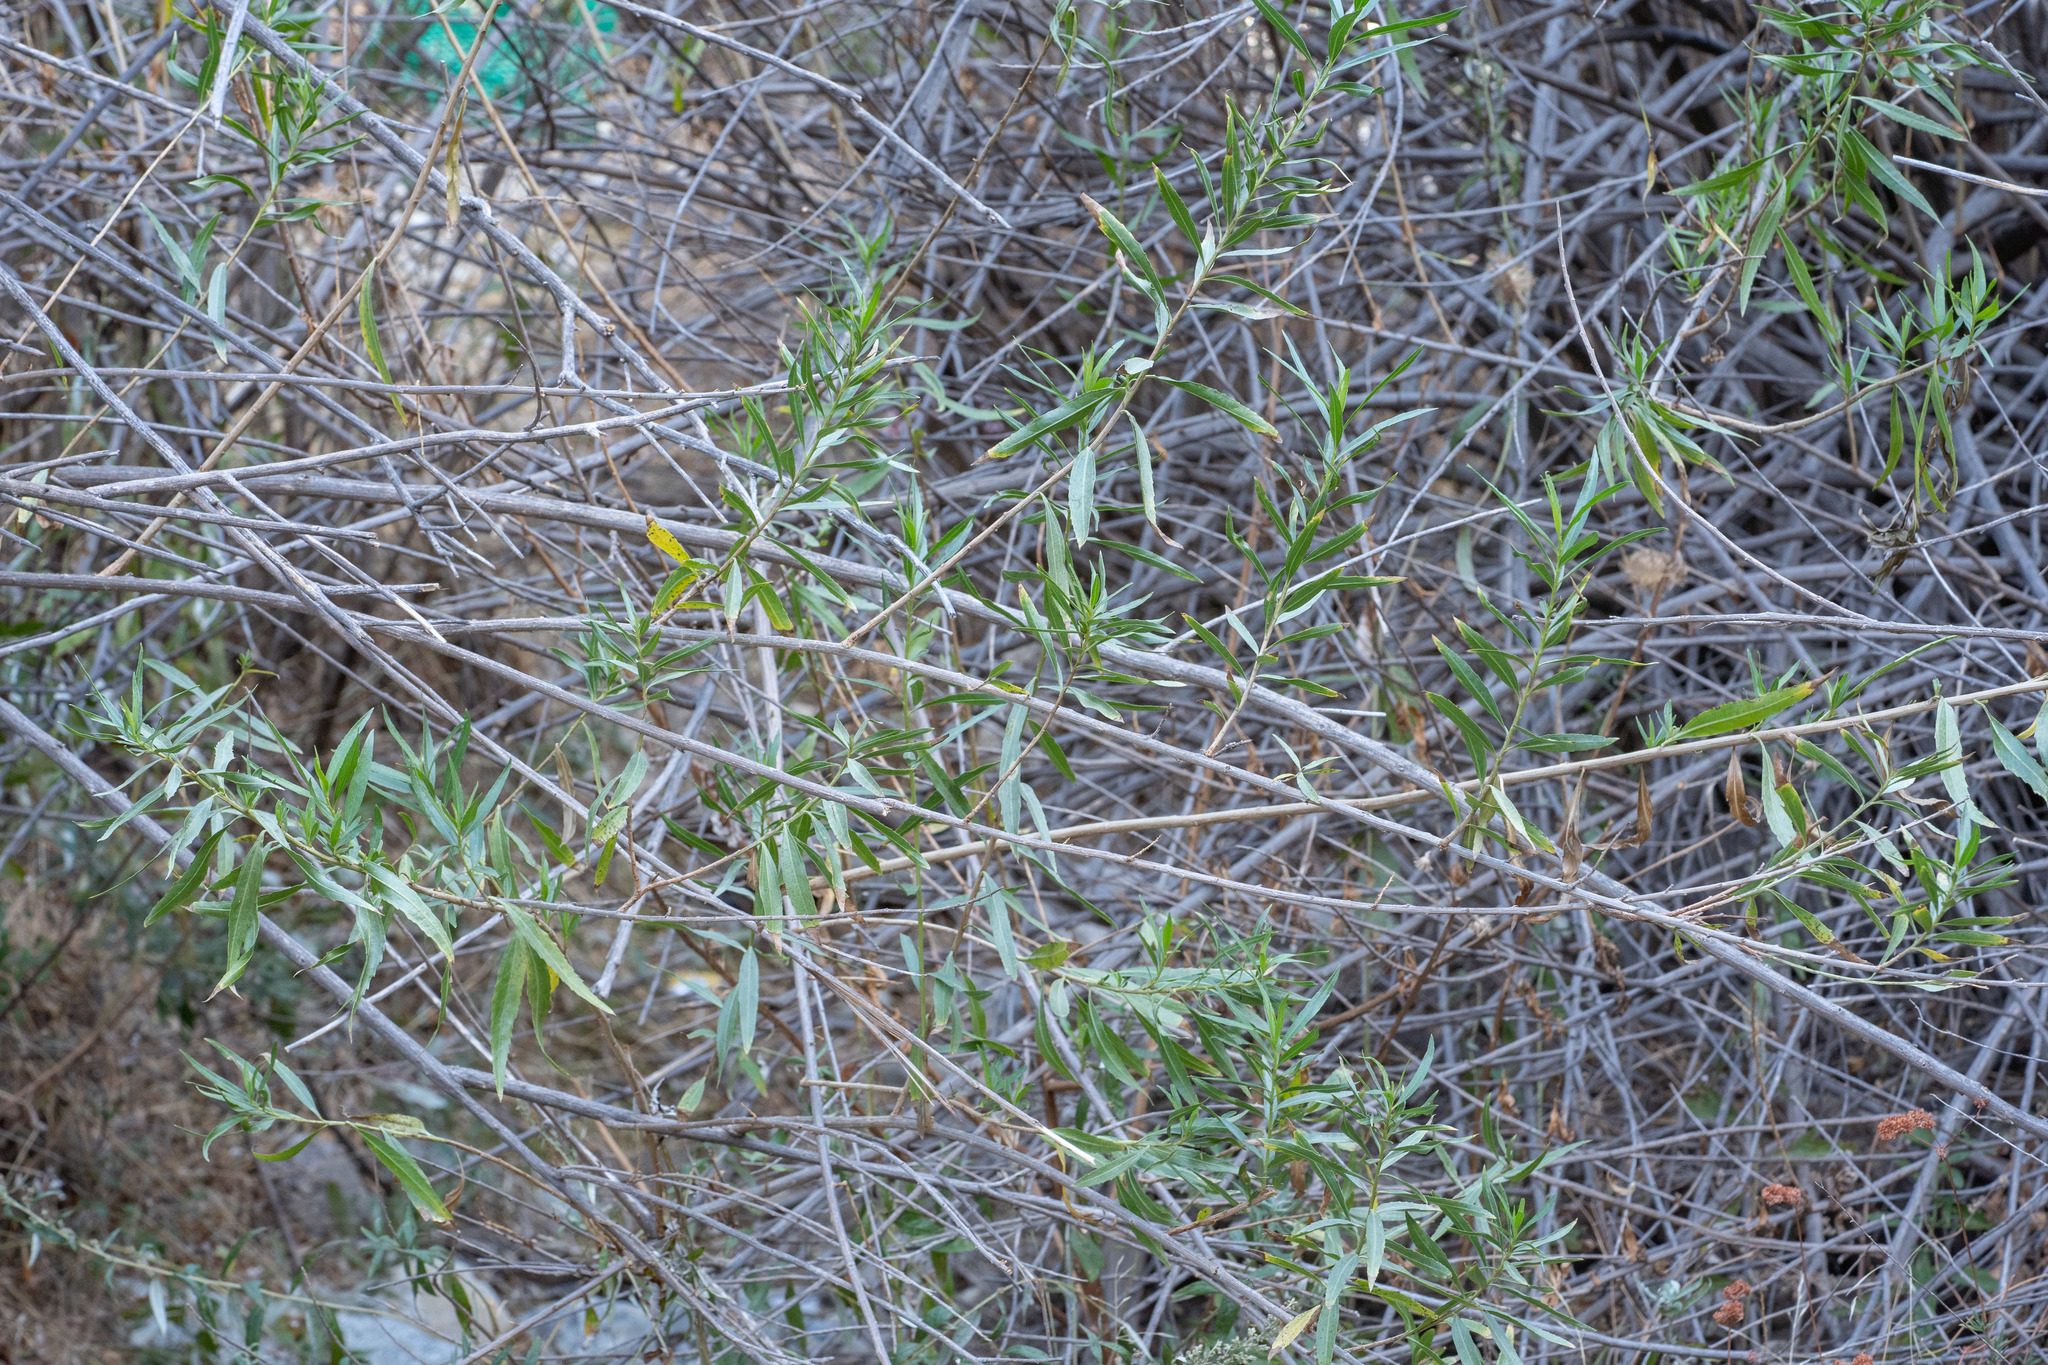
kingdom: Plantae
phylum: Tracheophyta
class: Magnoliopsida
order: Asterales
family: Asteraceae
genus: Baccharis
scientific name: Baccharis salicifolia
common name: Sticky baccharis
